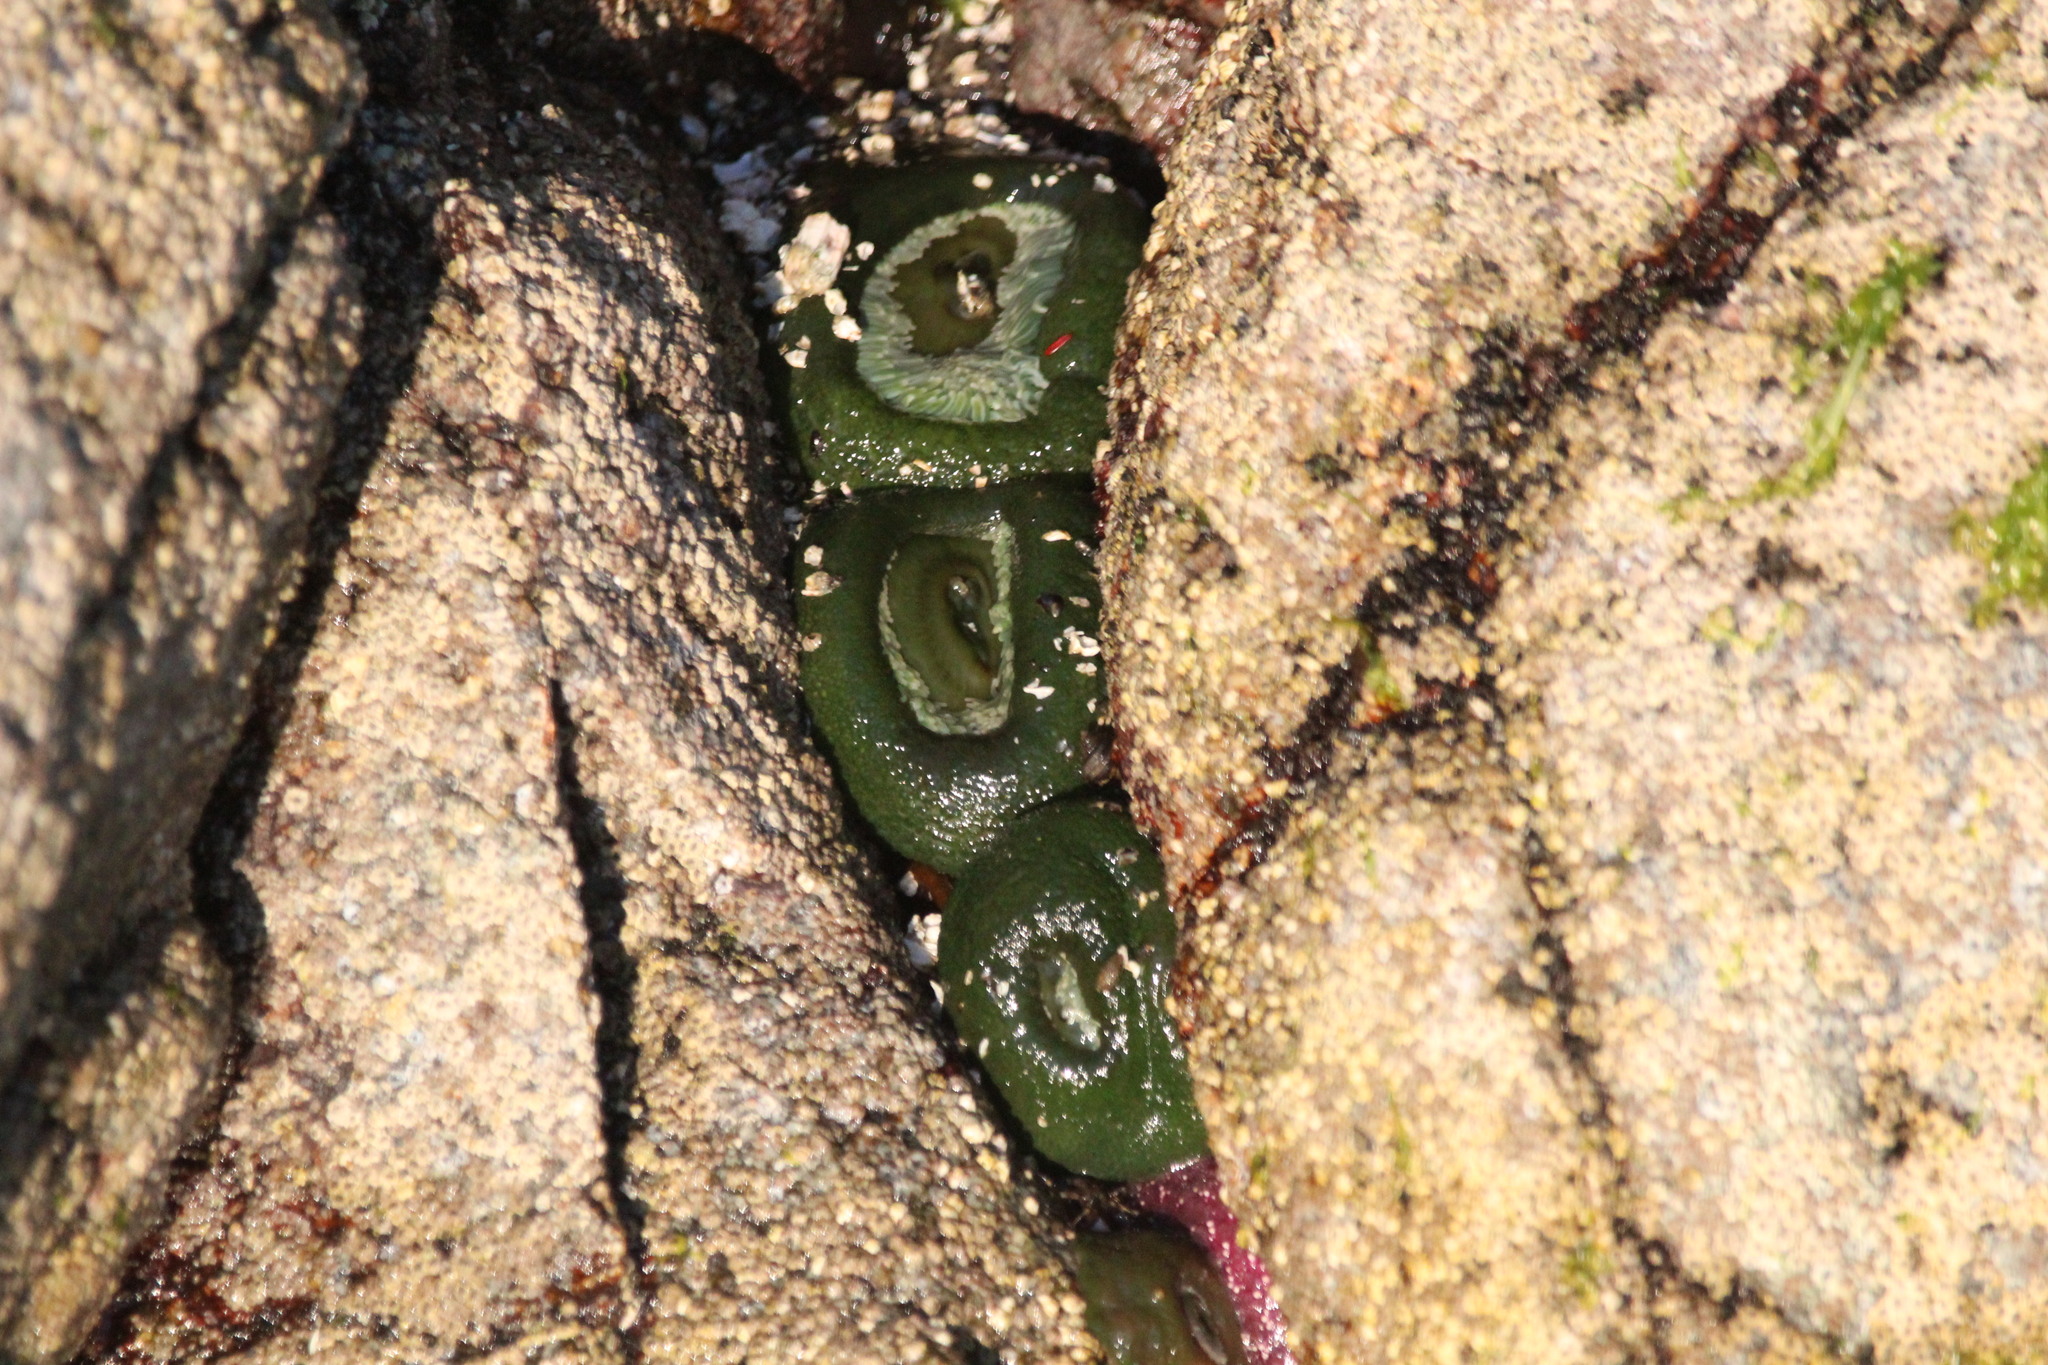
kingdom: Animalia
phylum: Cnidaria
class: Anthozoa
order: Actiniaria
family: Actiniidae
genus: Anthopleura
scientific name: Anthopleura xanthogrammica
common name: Giant green anemone
